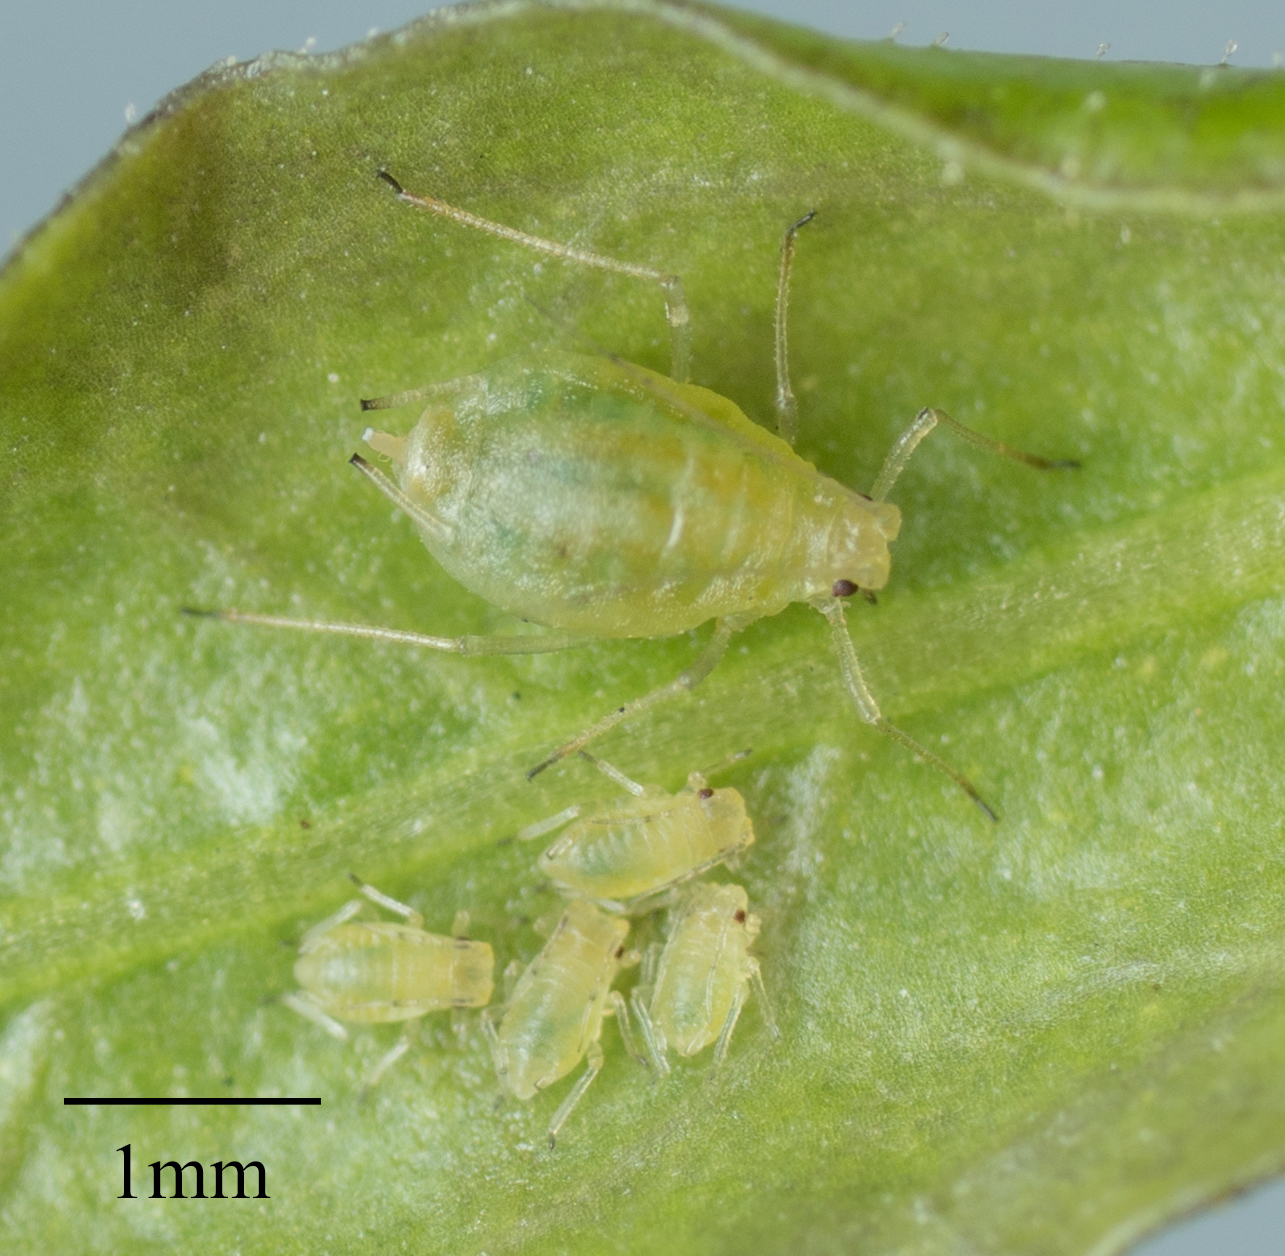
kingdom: Animalia
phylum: Arthropoda
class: Insecta
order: Hemiptera
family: Aphididae
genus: Myzus
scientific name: Myzus persicae
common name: Green peach aphid
